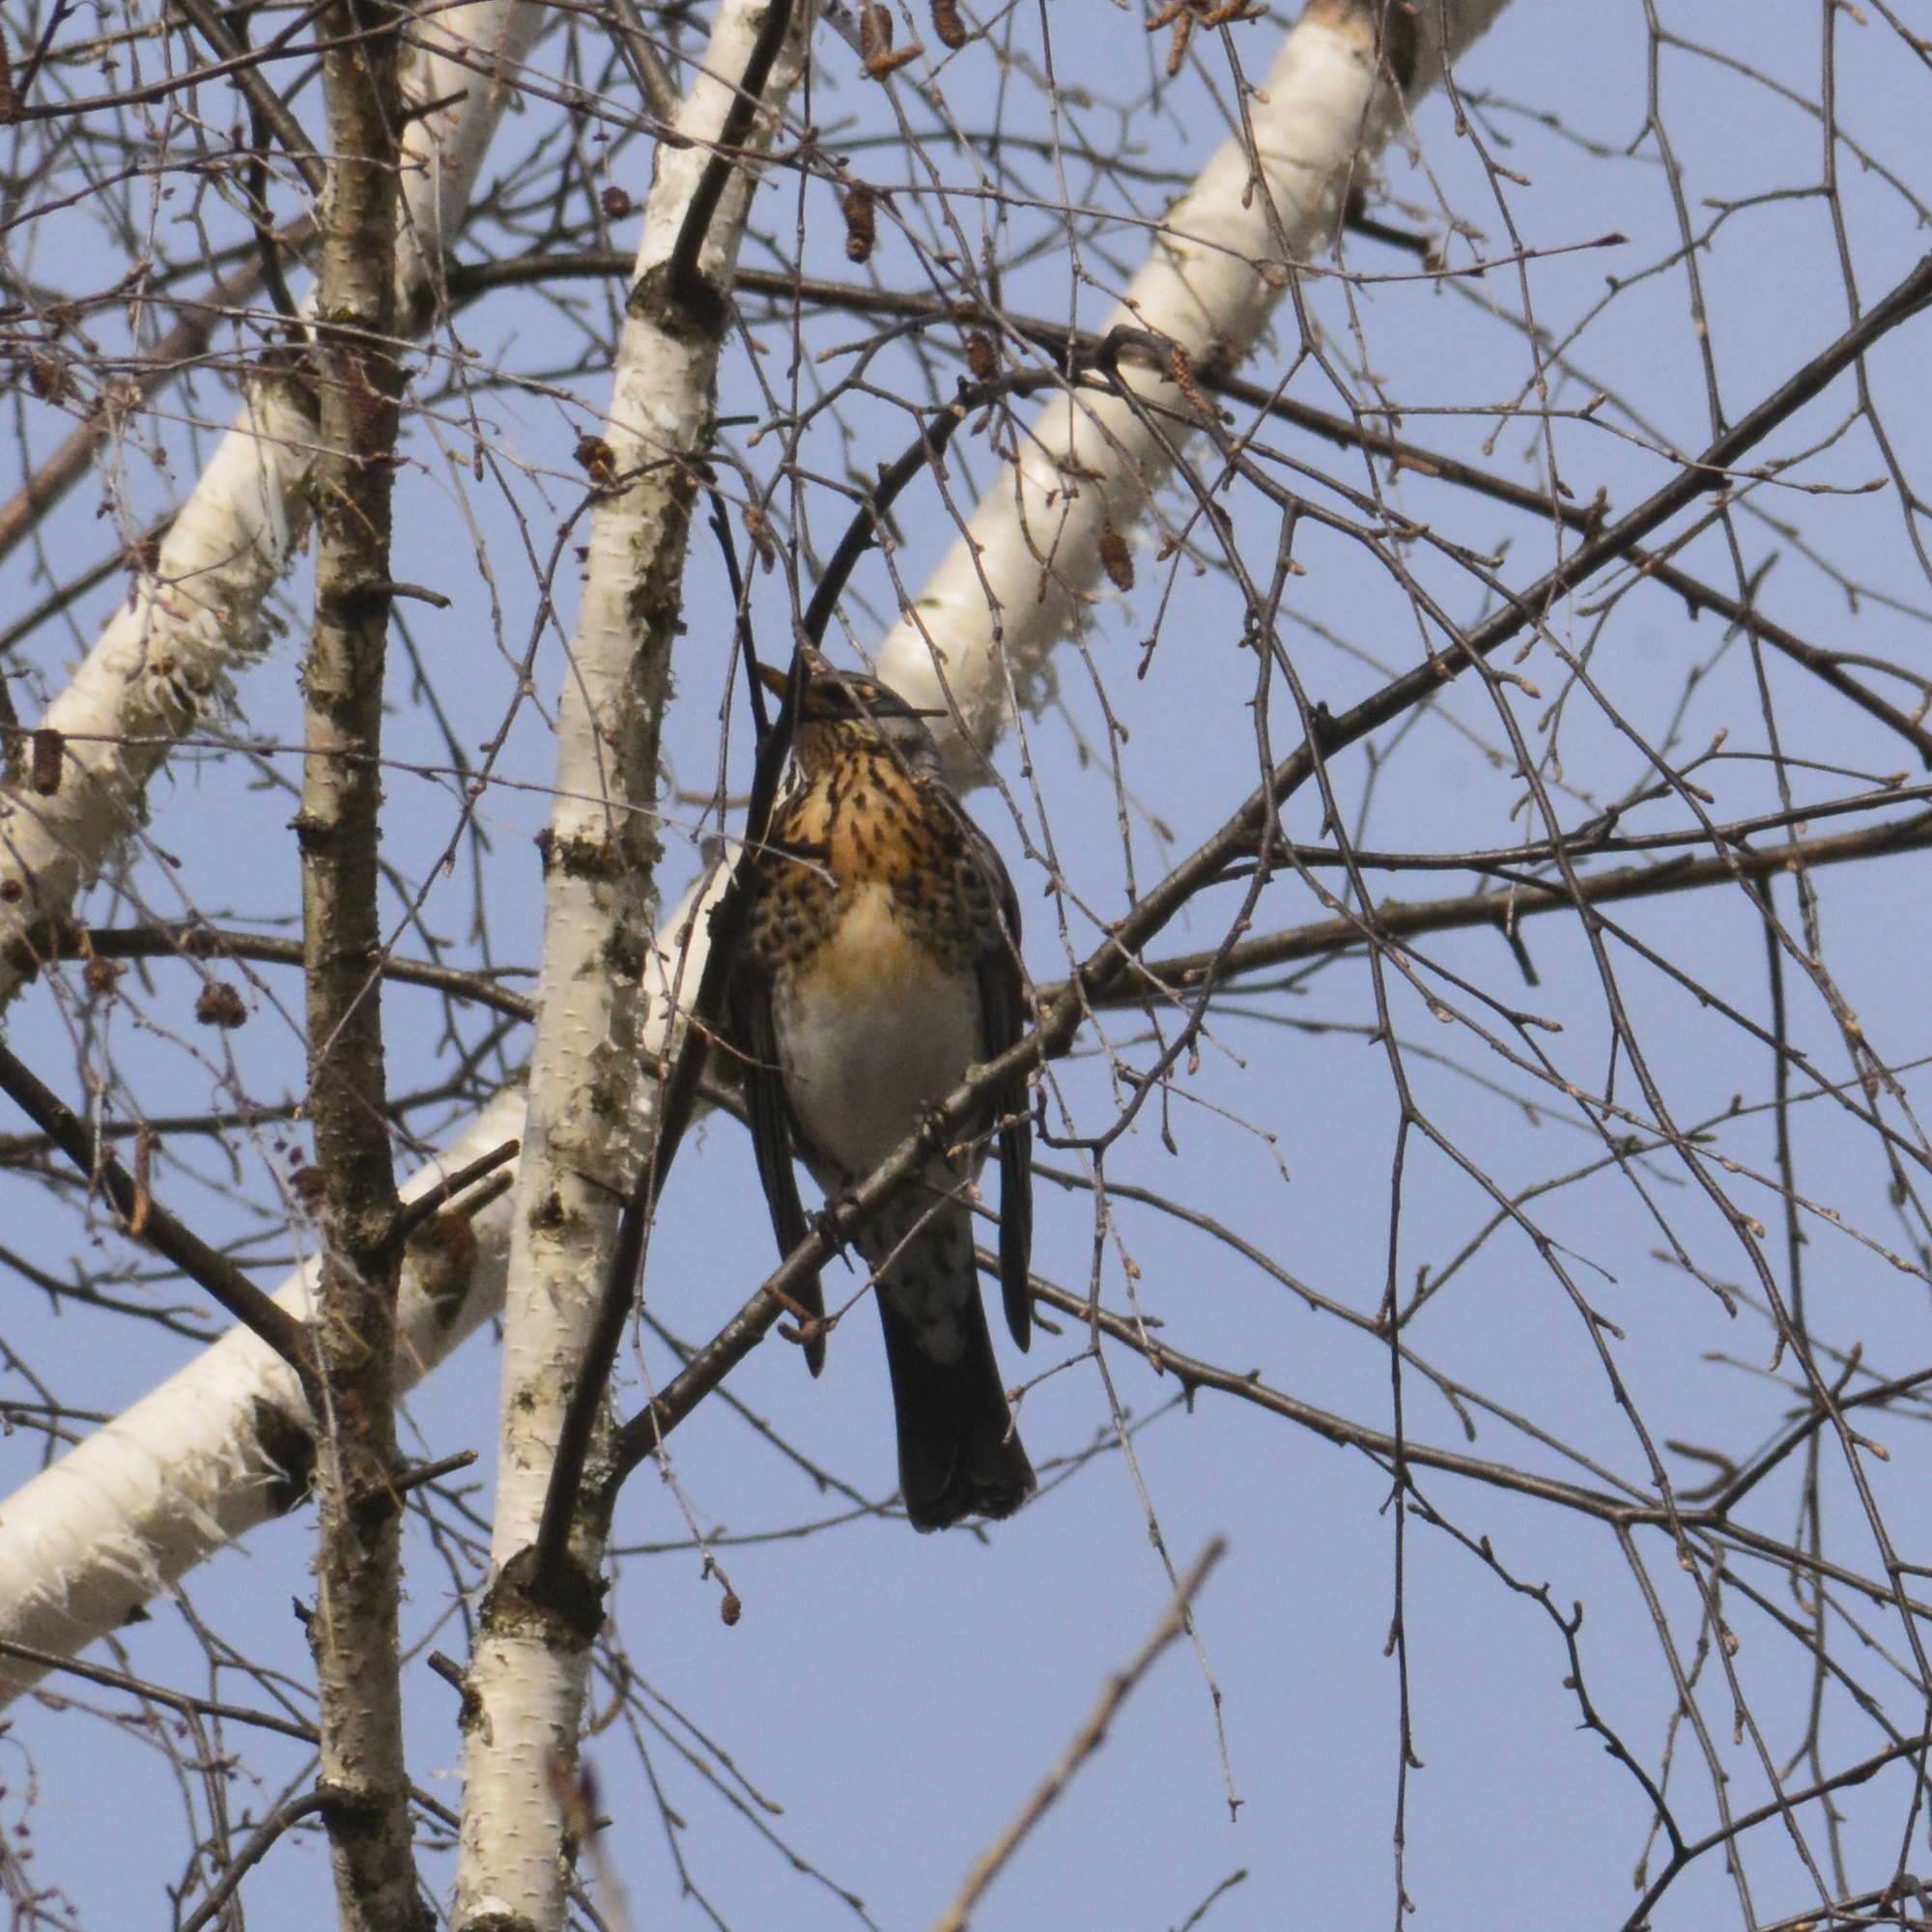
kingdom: Animalia
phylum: Chordata
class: Aves
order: Passeriformes
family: Turdidae
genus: Turdus
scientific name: Turdus pilaris
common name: Fieldfare
